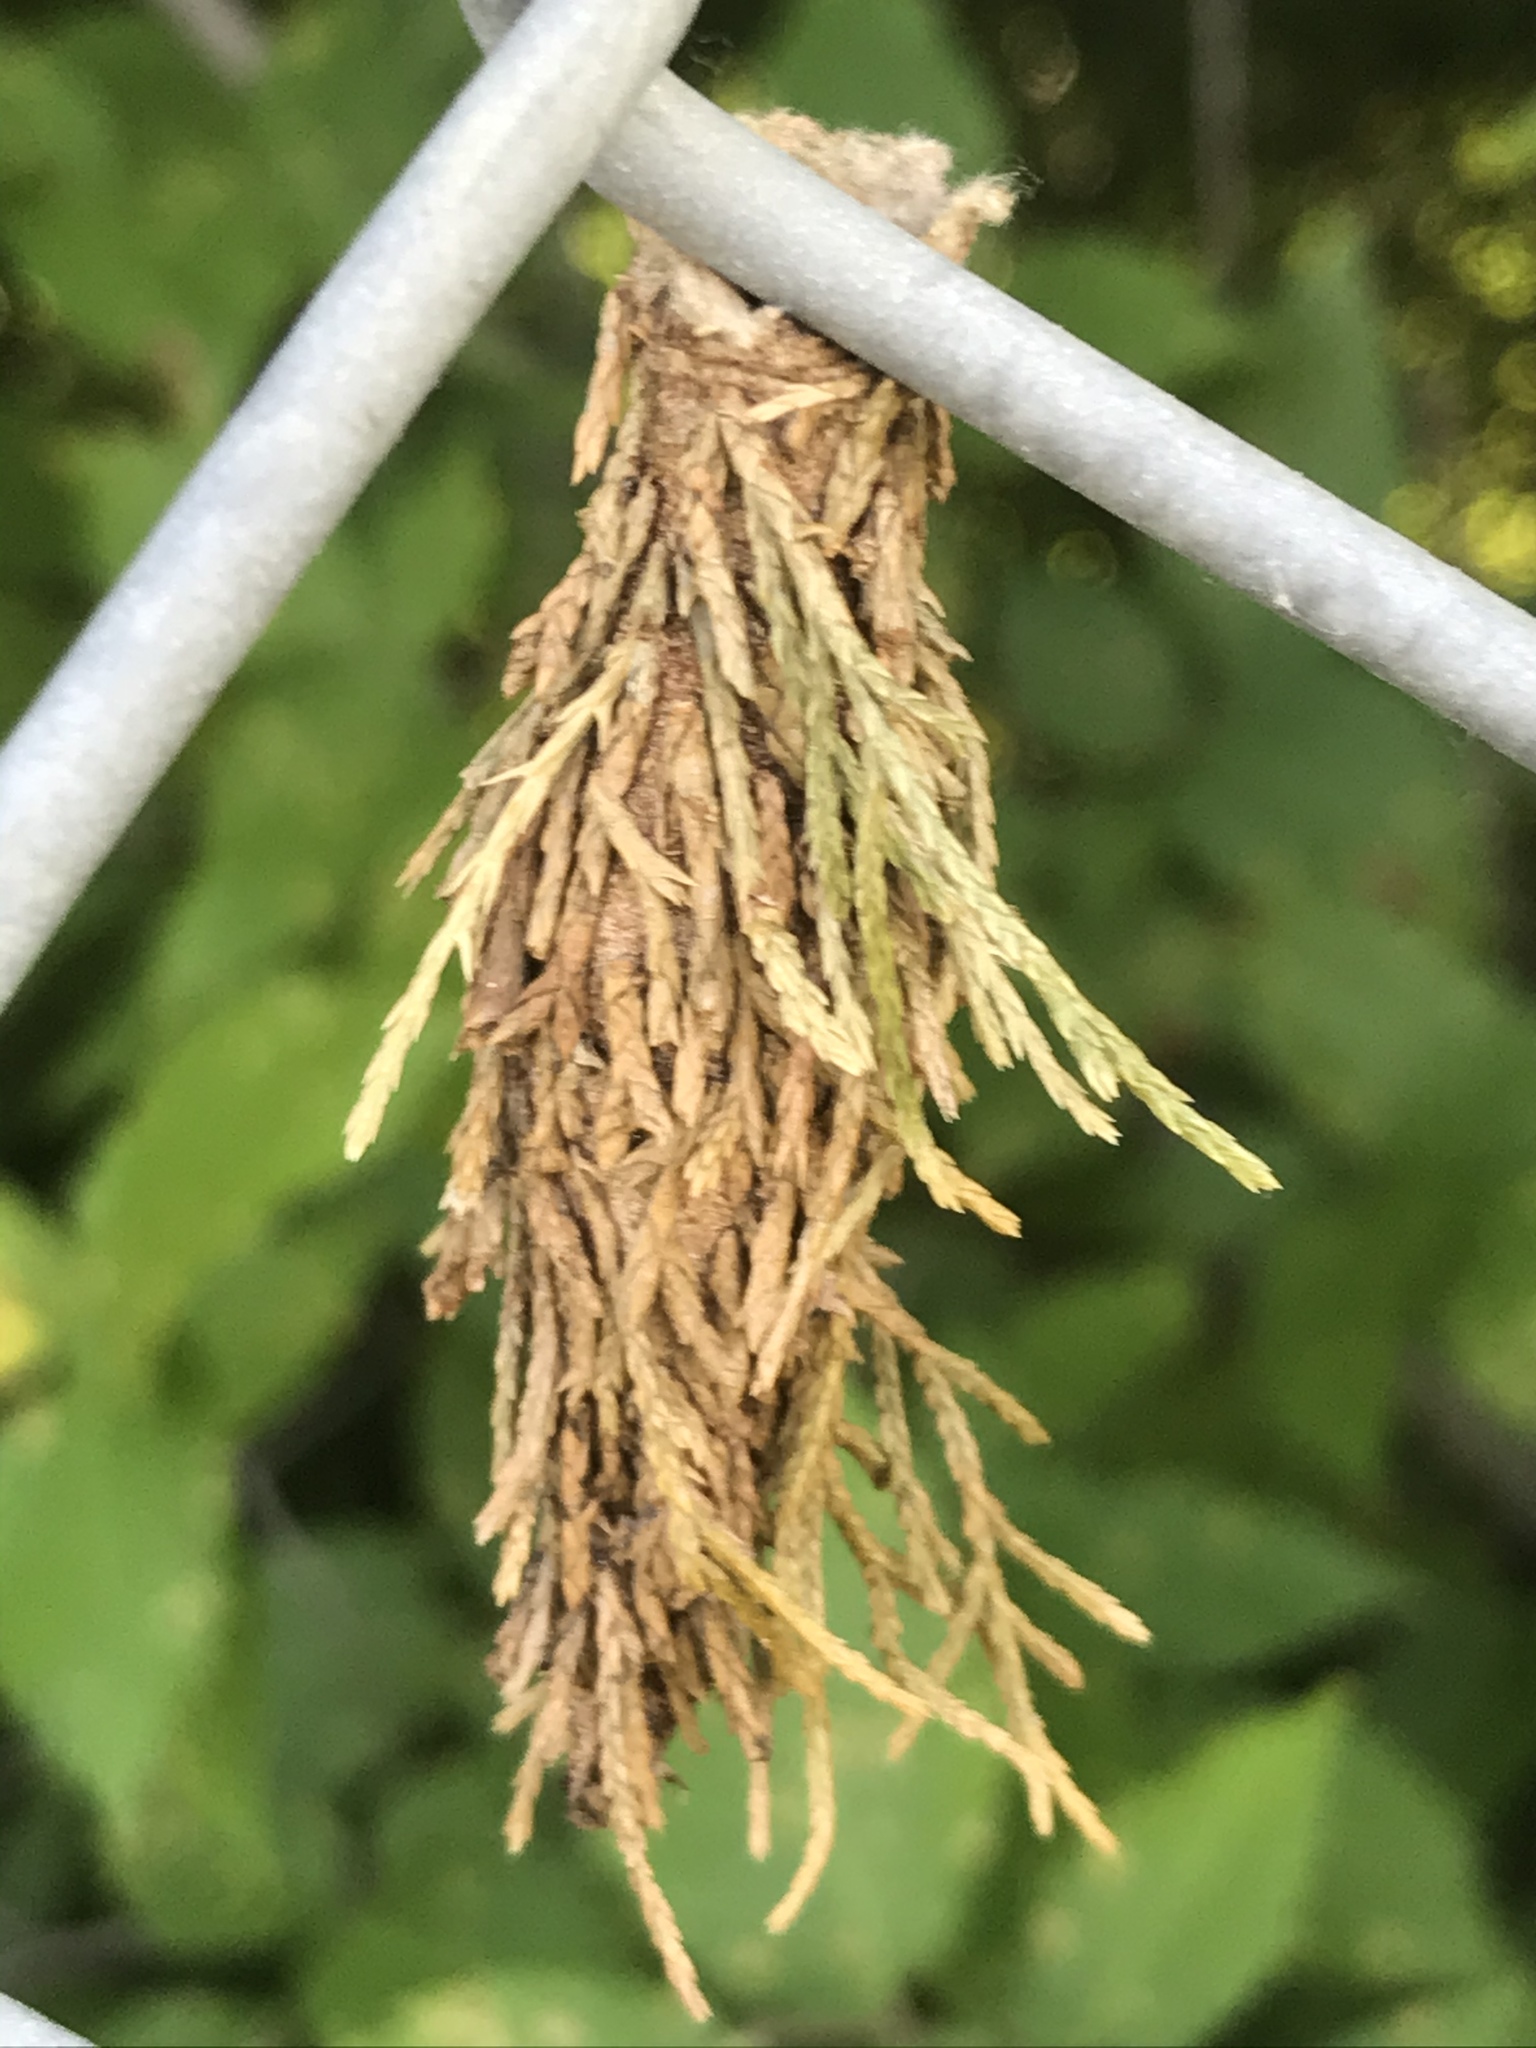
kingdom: Animalia
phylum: Arthropoda
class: Insecta
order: Lepidoptera
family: Psychidae
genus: Thyridopteryx
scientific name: Thyridopteryx ephemeraeformis
